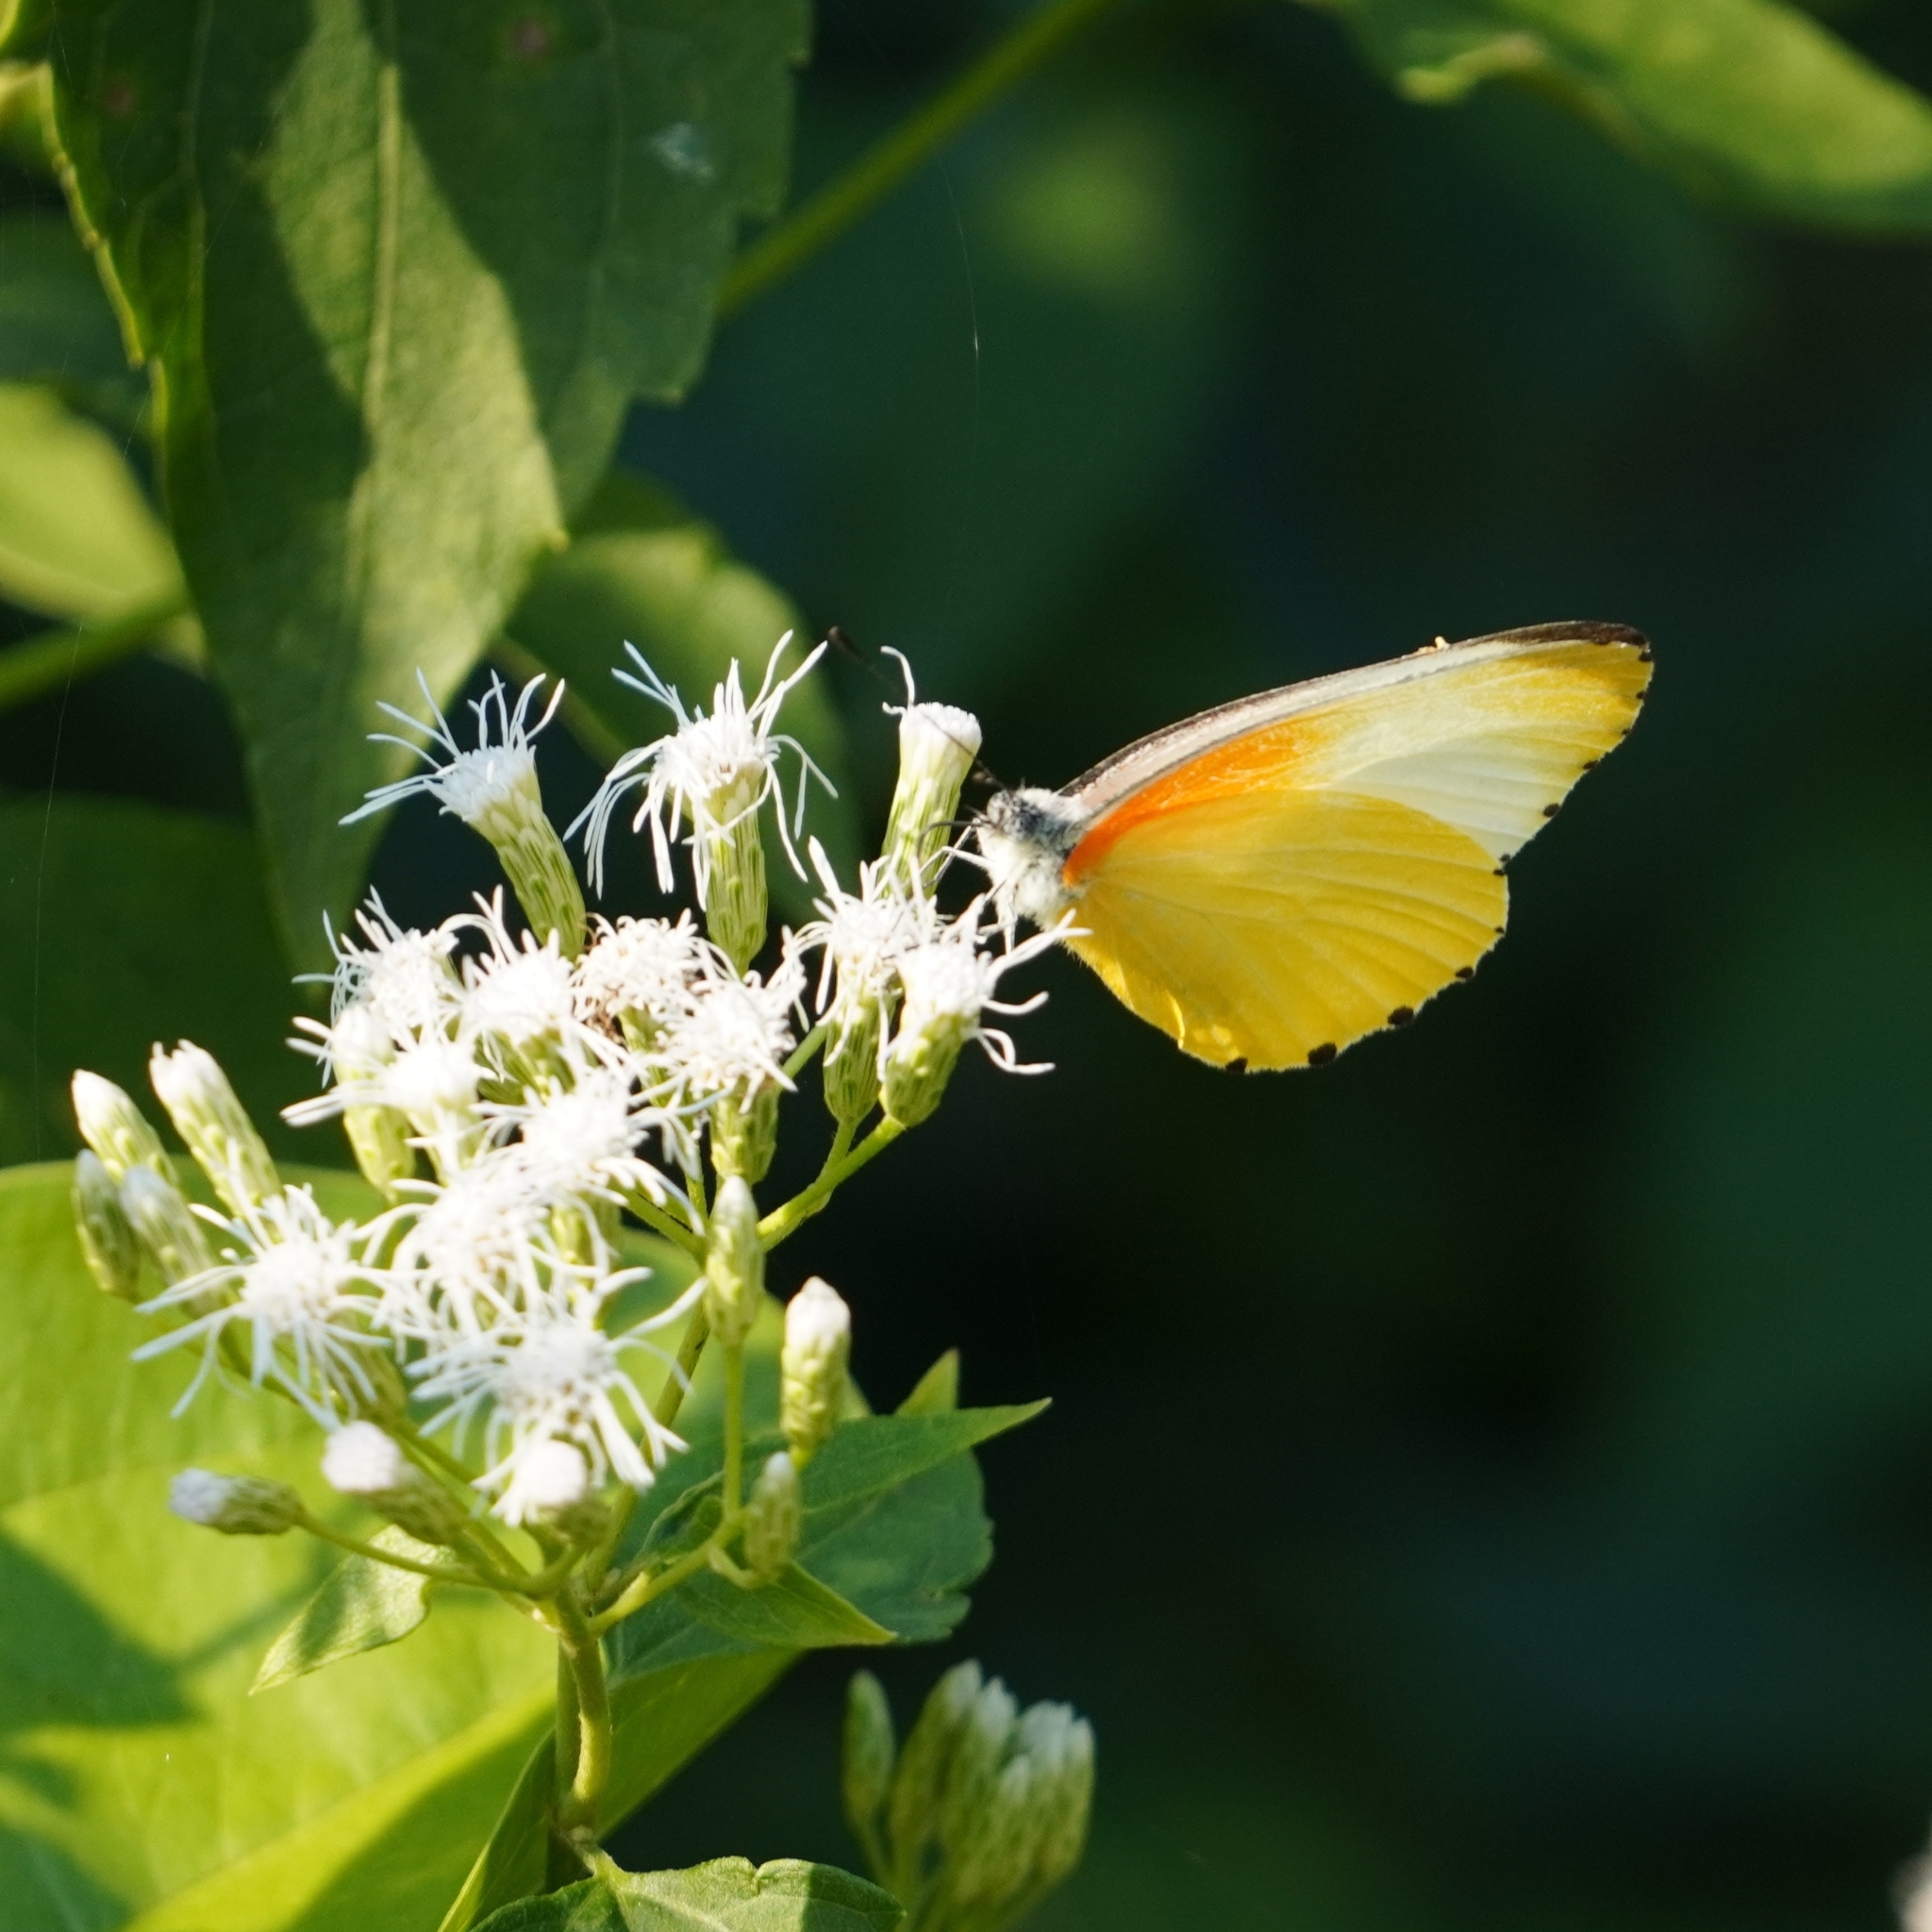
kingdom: Animalia
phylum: Arthropoda
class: Insecta
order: Lepidoptera
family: Pieridae
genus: Mylothris
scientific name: Mylothris agathina
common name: Eastern dotted border
